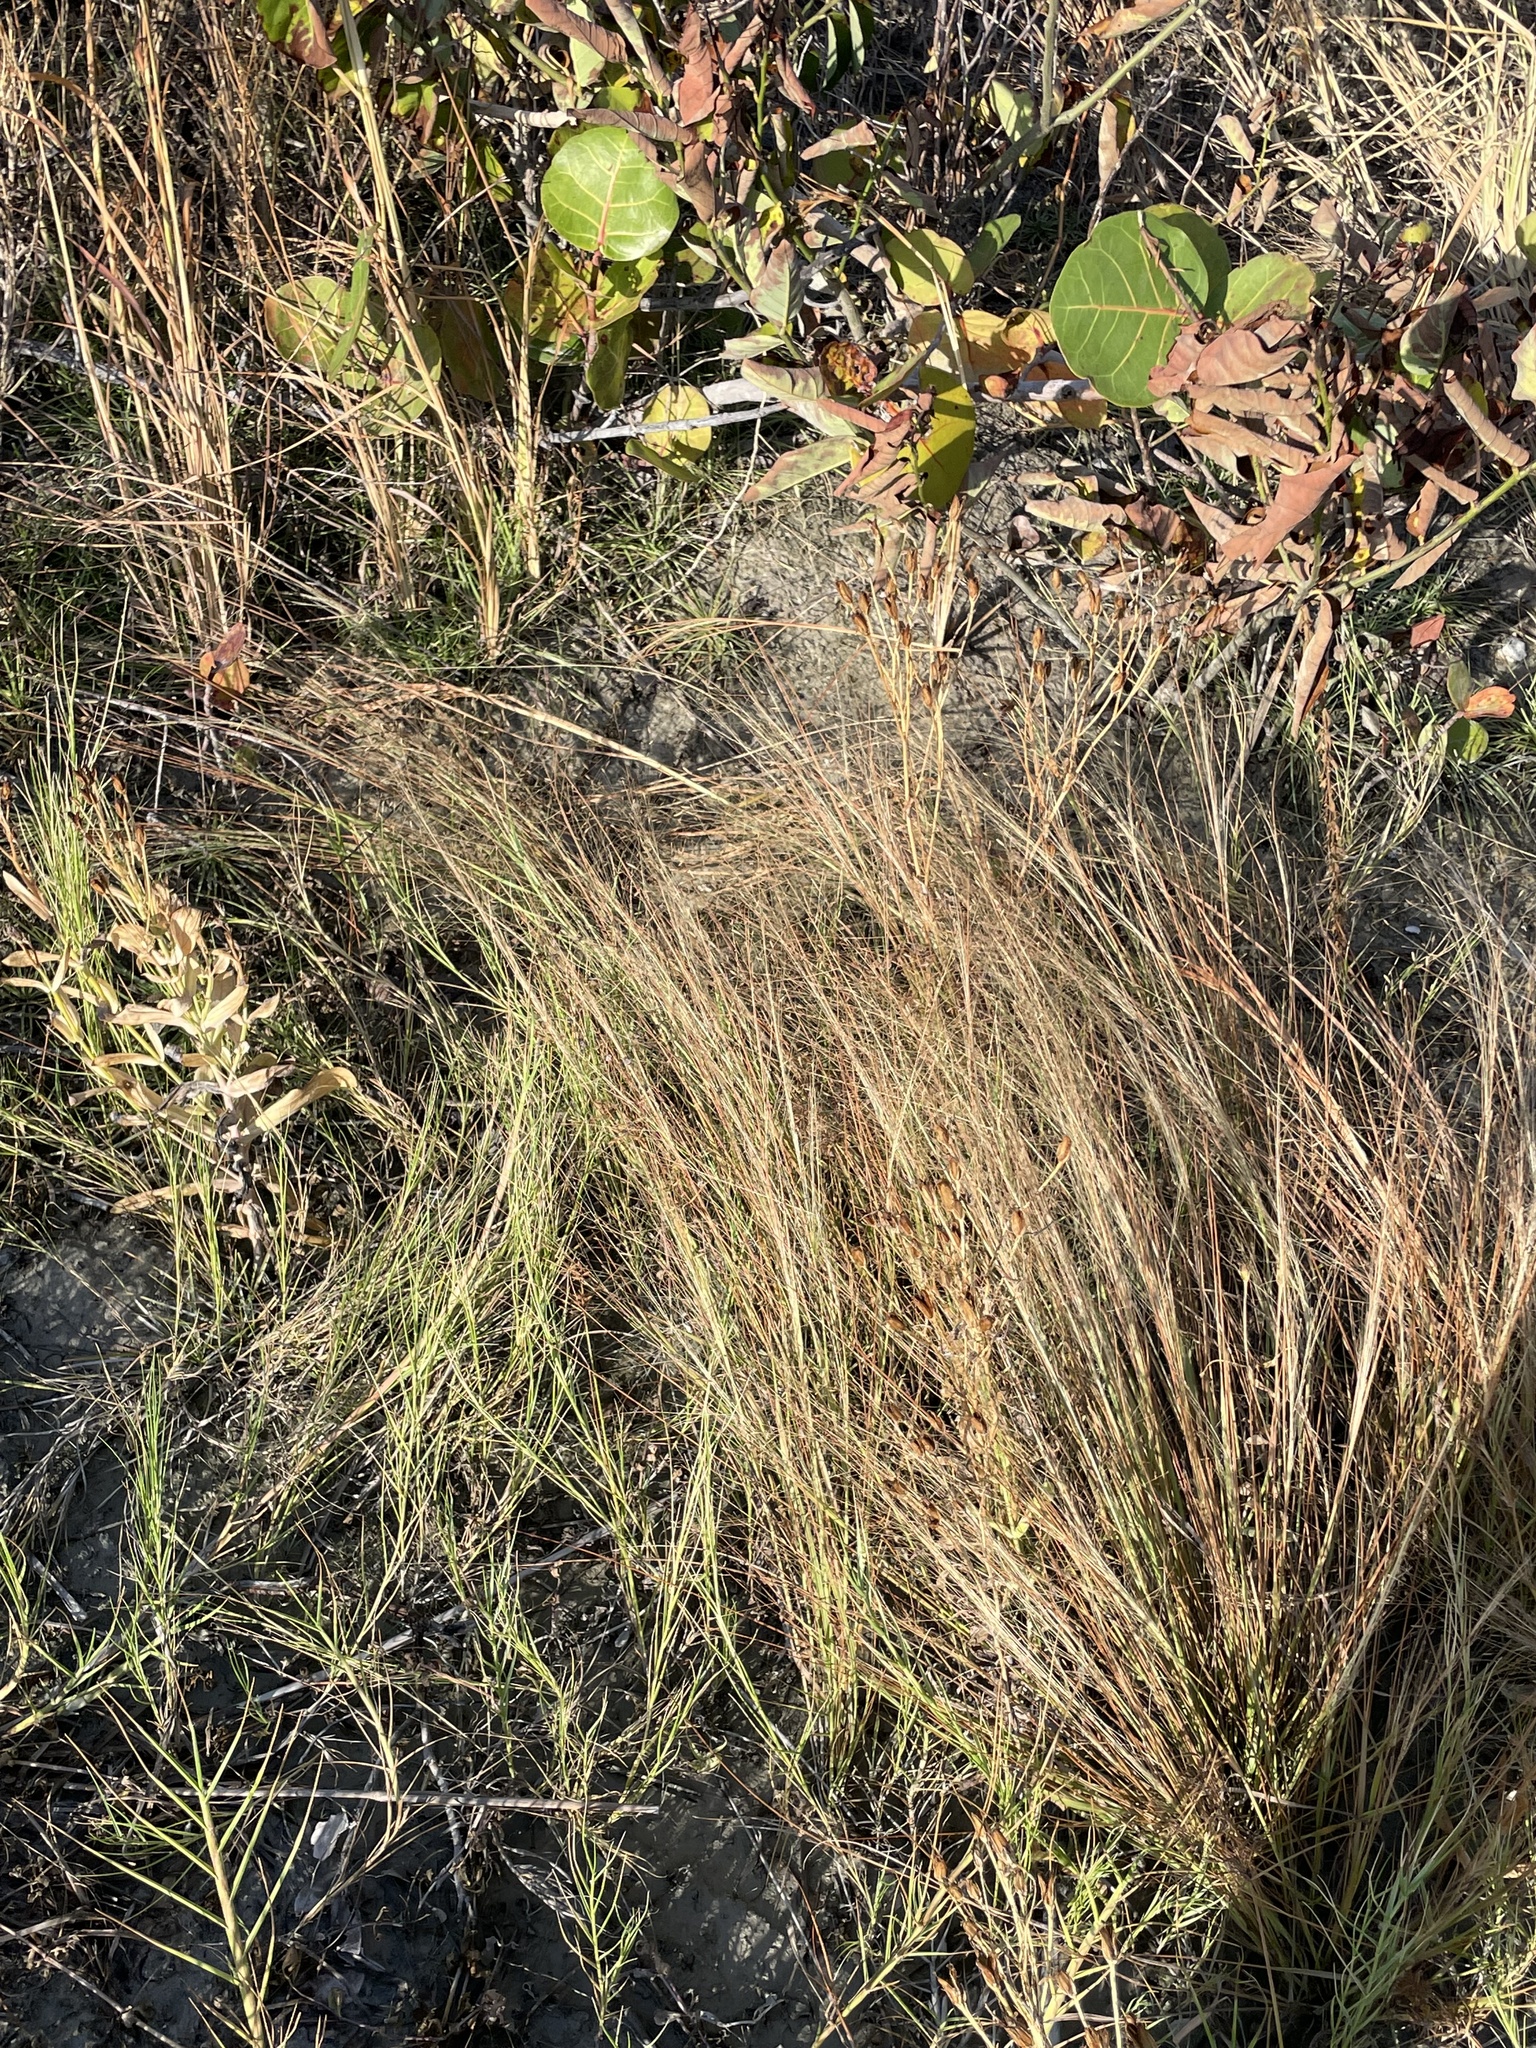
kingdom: Plantae
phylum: Tracheophyta
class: Liliopsida
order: Poales
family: Poaceae
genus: Eragrostis
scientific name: Eragrostis elliottii
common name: Elliott's love grass
